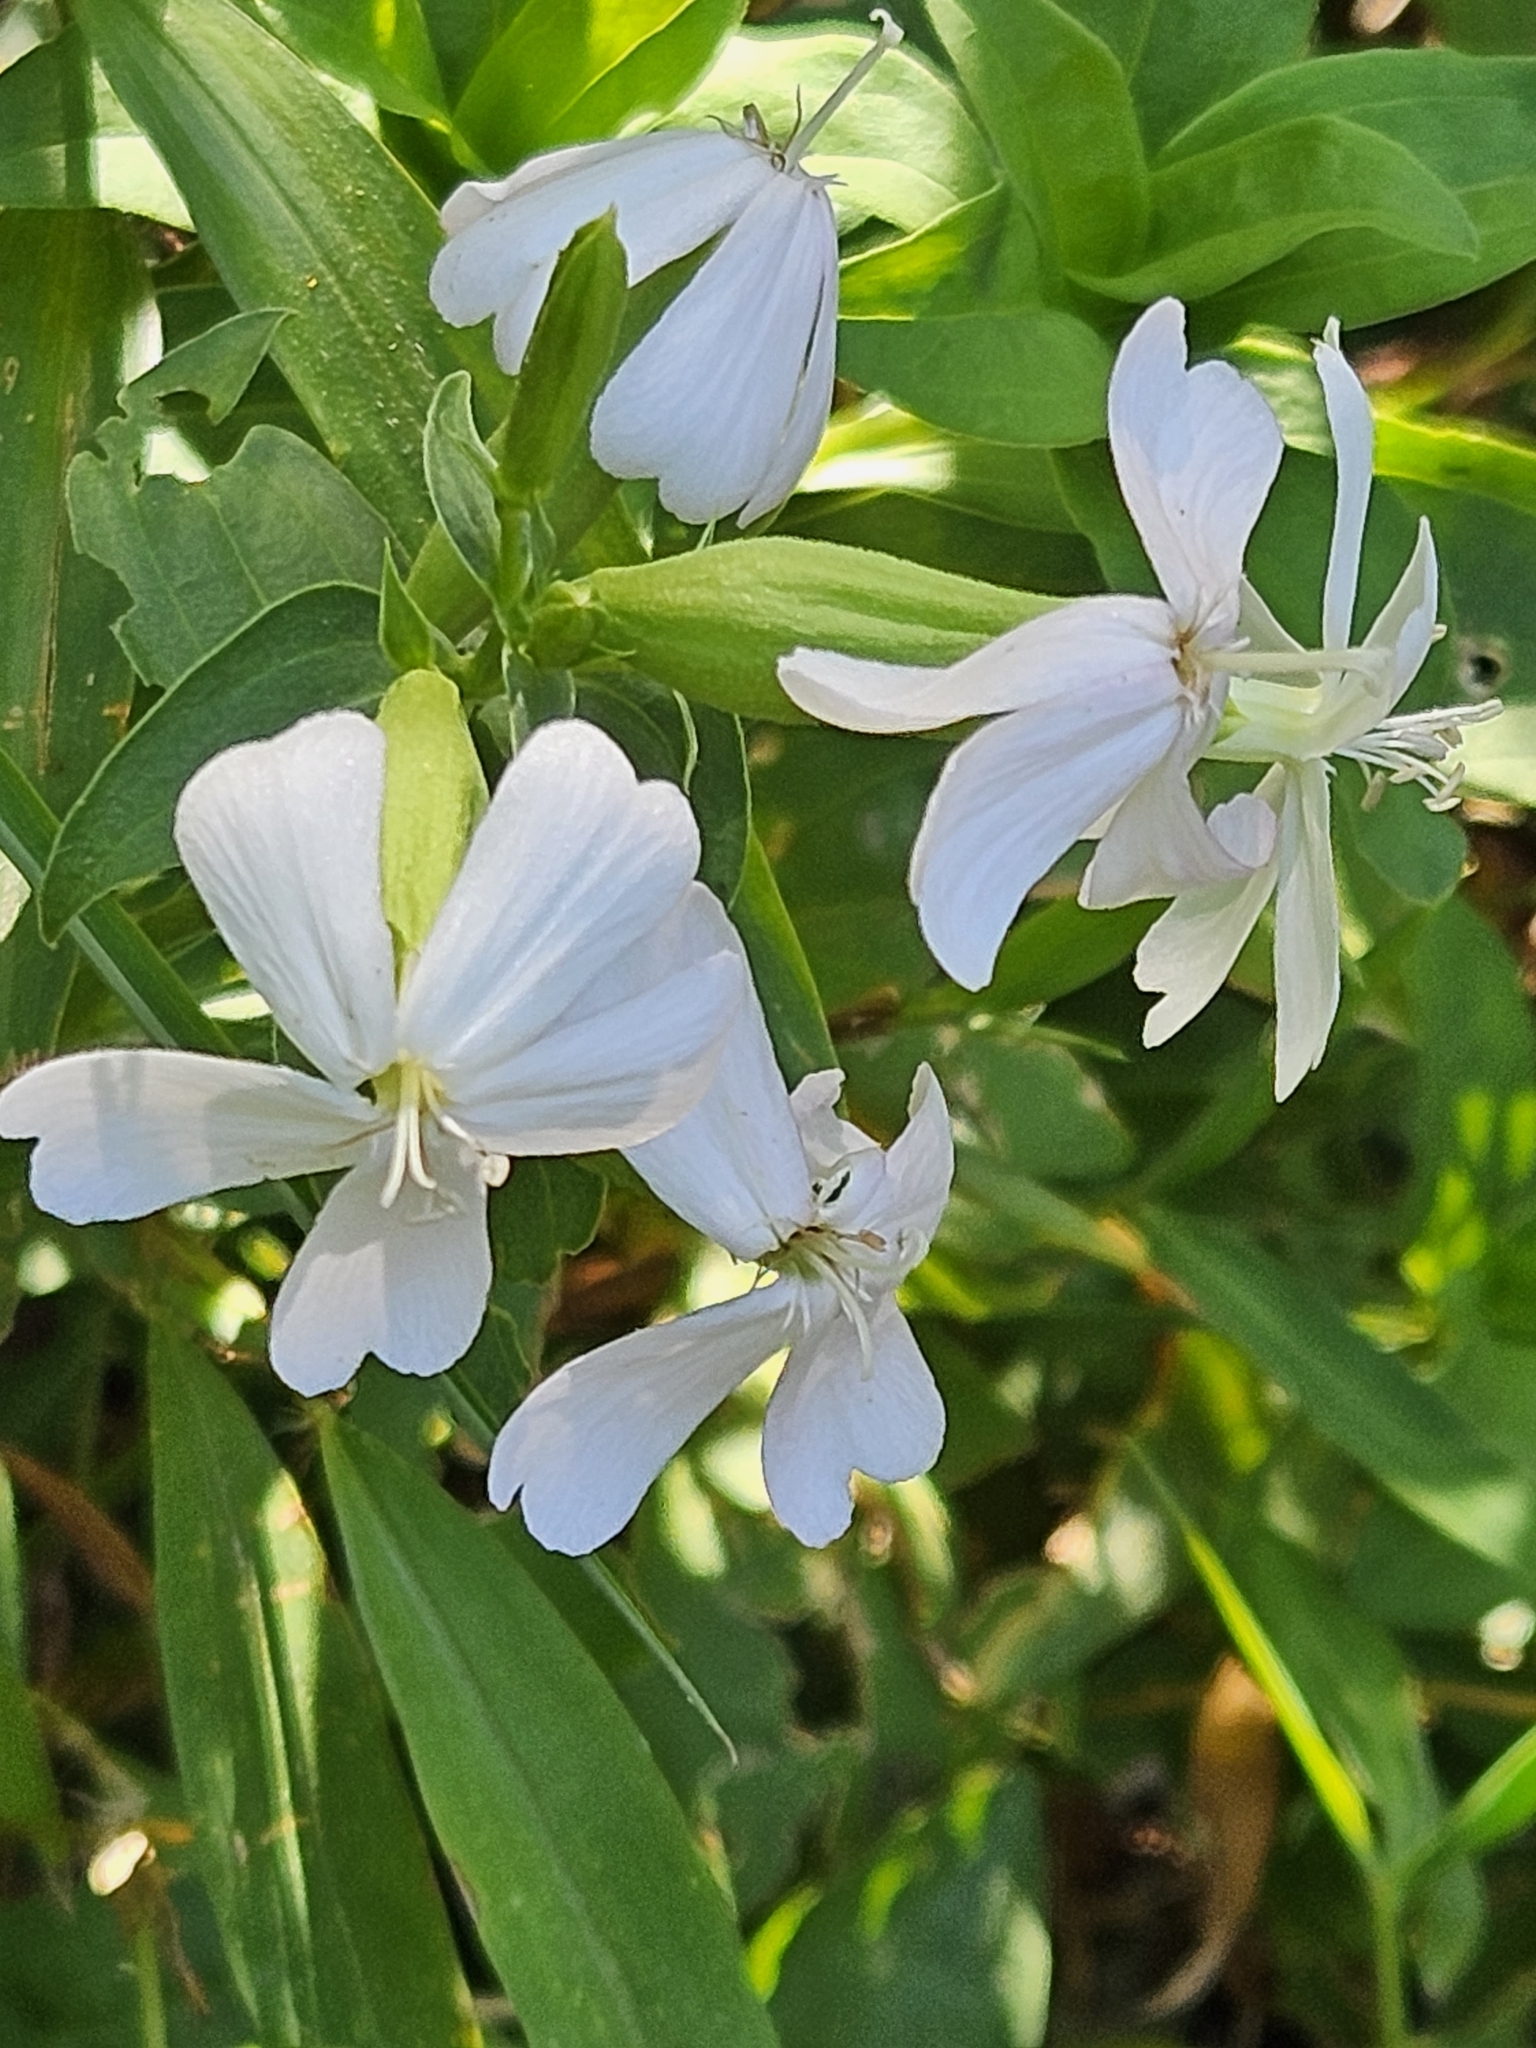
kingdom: Plantae
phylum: Tracheophyta
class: Magnoliopsida
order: Caryophyllales
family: Caryophyllaceae
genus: Saponaria
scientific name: Saponaria officinalis
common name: Soapwort
